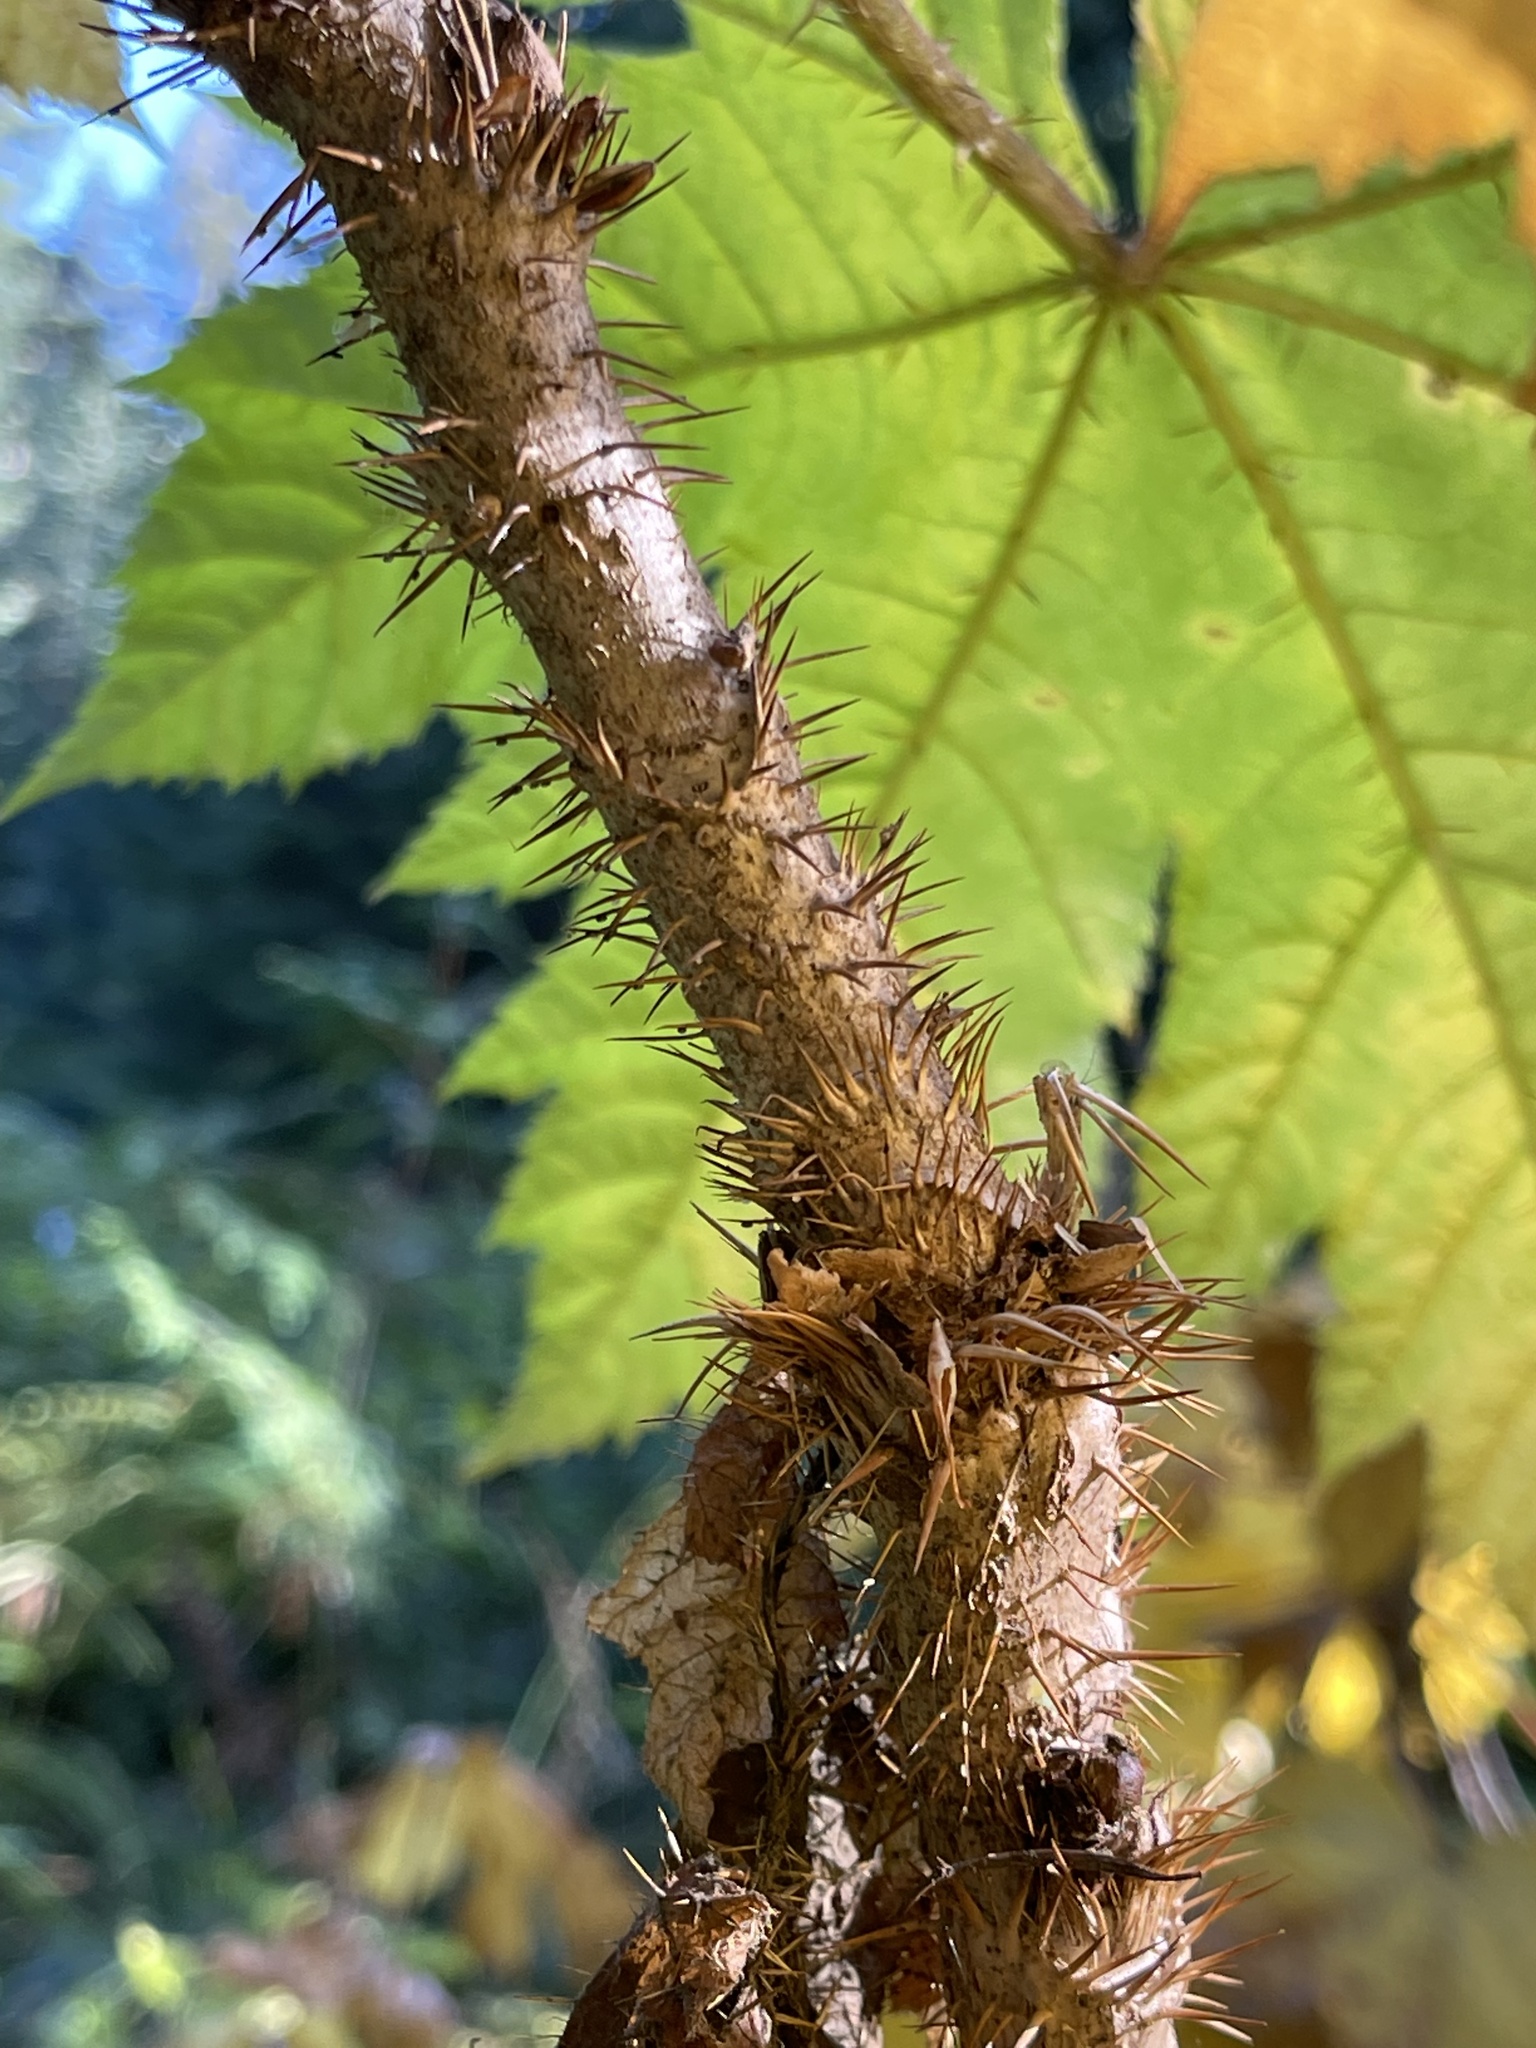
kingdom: Plantae
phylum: Tracheophyta
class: Magnoliopsida
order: Apiales
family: Araliaceae
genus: Oplopanax
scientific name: Oplopanax horridus
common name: Devil's walking-stick
